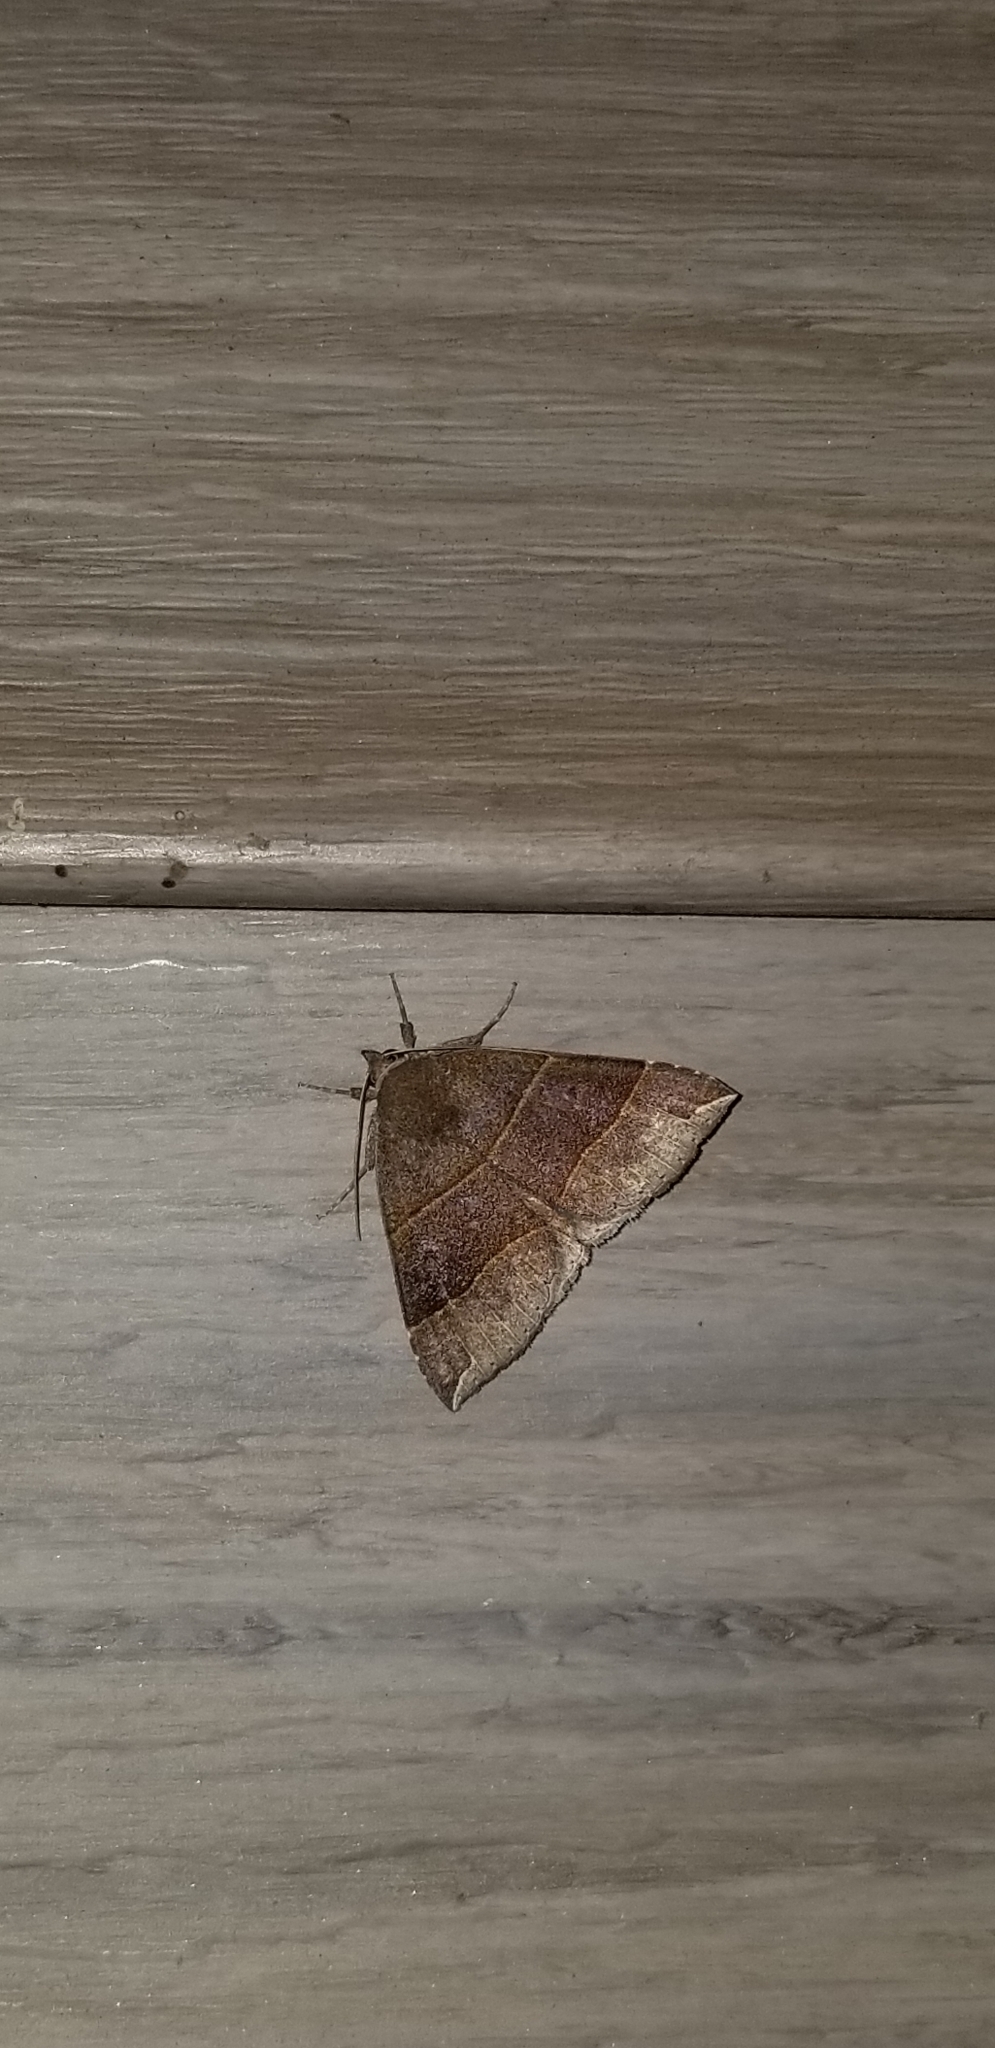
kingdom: Animalia
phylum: Arthropoda
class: Insecta
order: Lepidoptera
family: Erebidae
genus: Parallelia
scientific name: Parallelia bistriaris
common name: Maple looper moth
